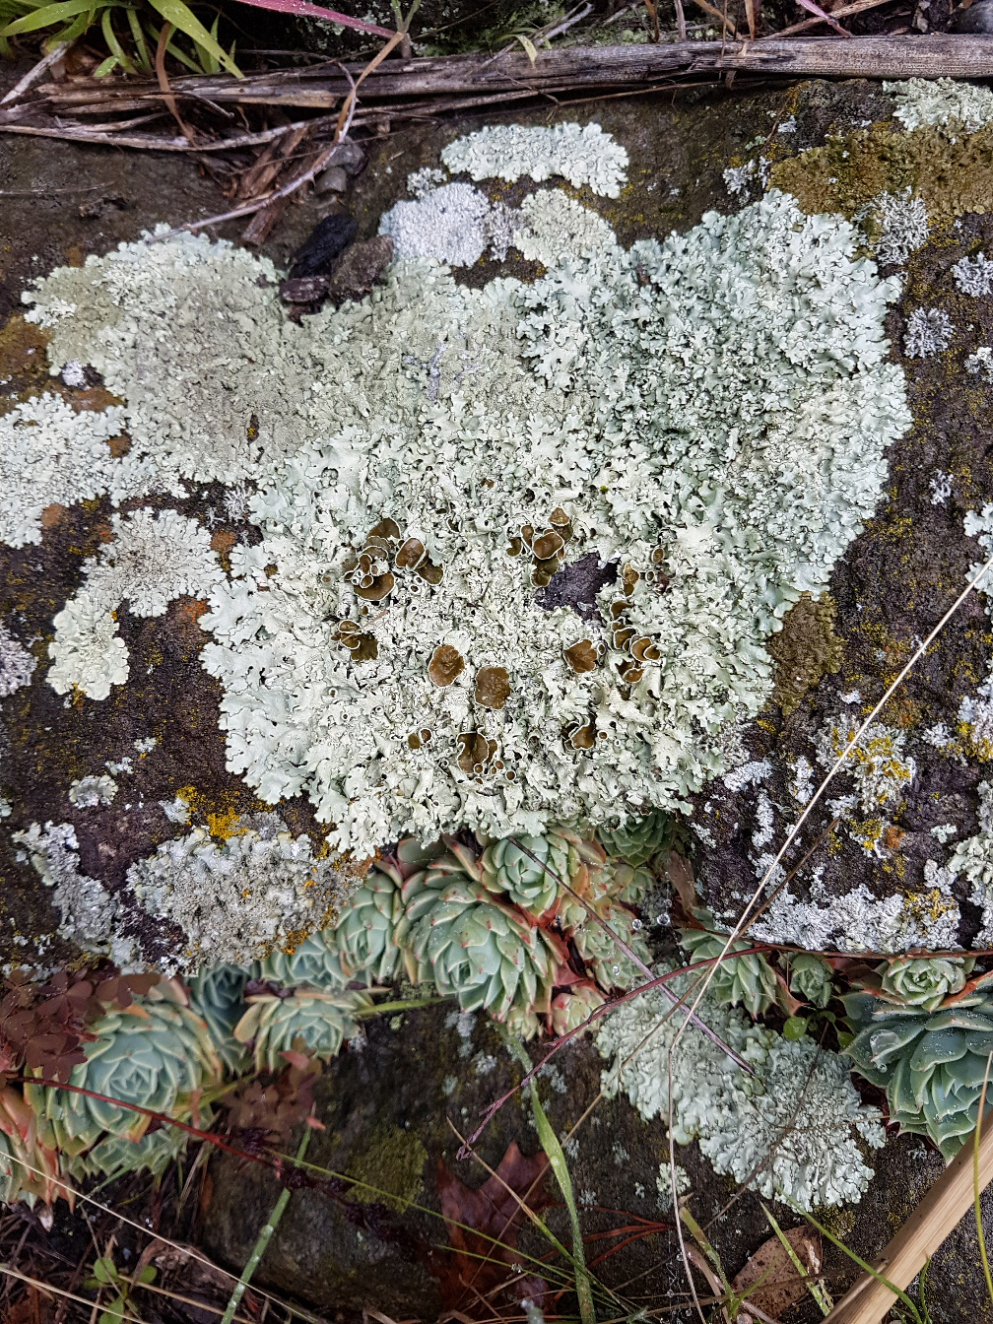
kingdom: Fungi
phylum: Ascomycota
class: Lecanoromycetes
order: Lecanorales
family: Parmeliaceae
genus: Xanthoparmelia
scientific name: Xanthoparmelia scabrosa
